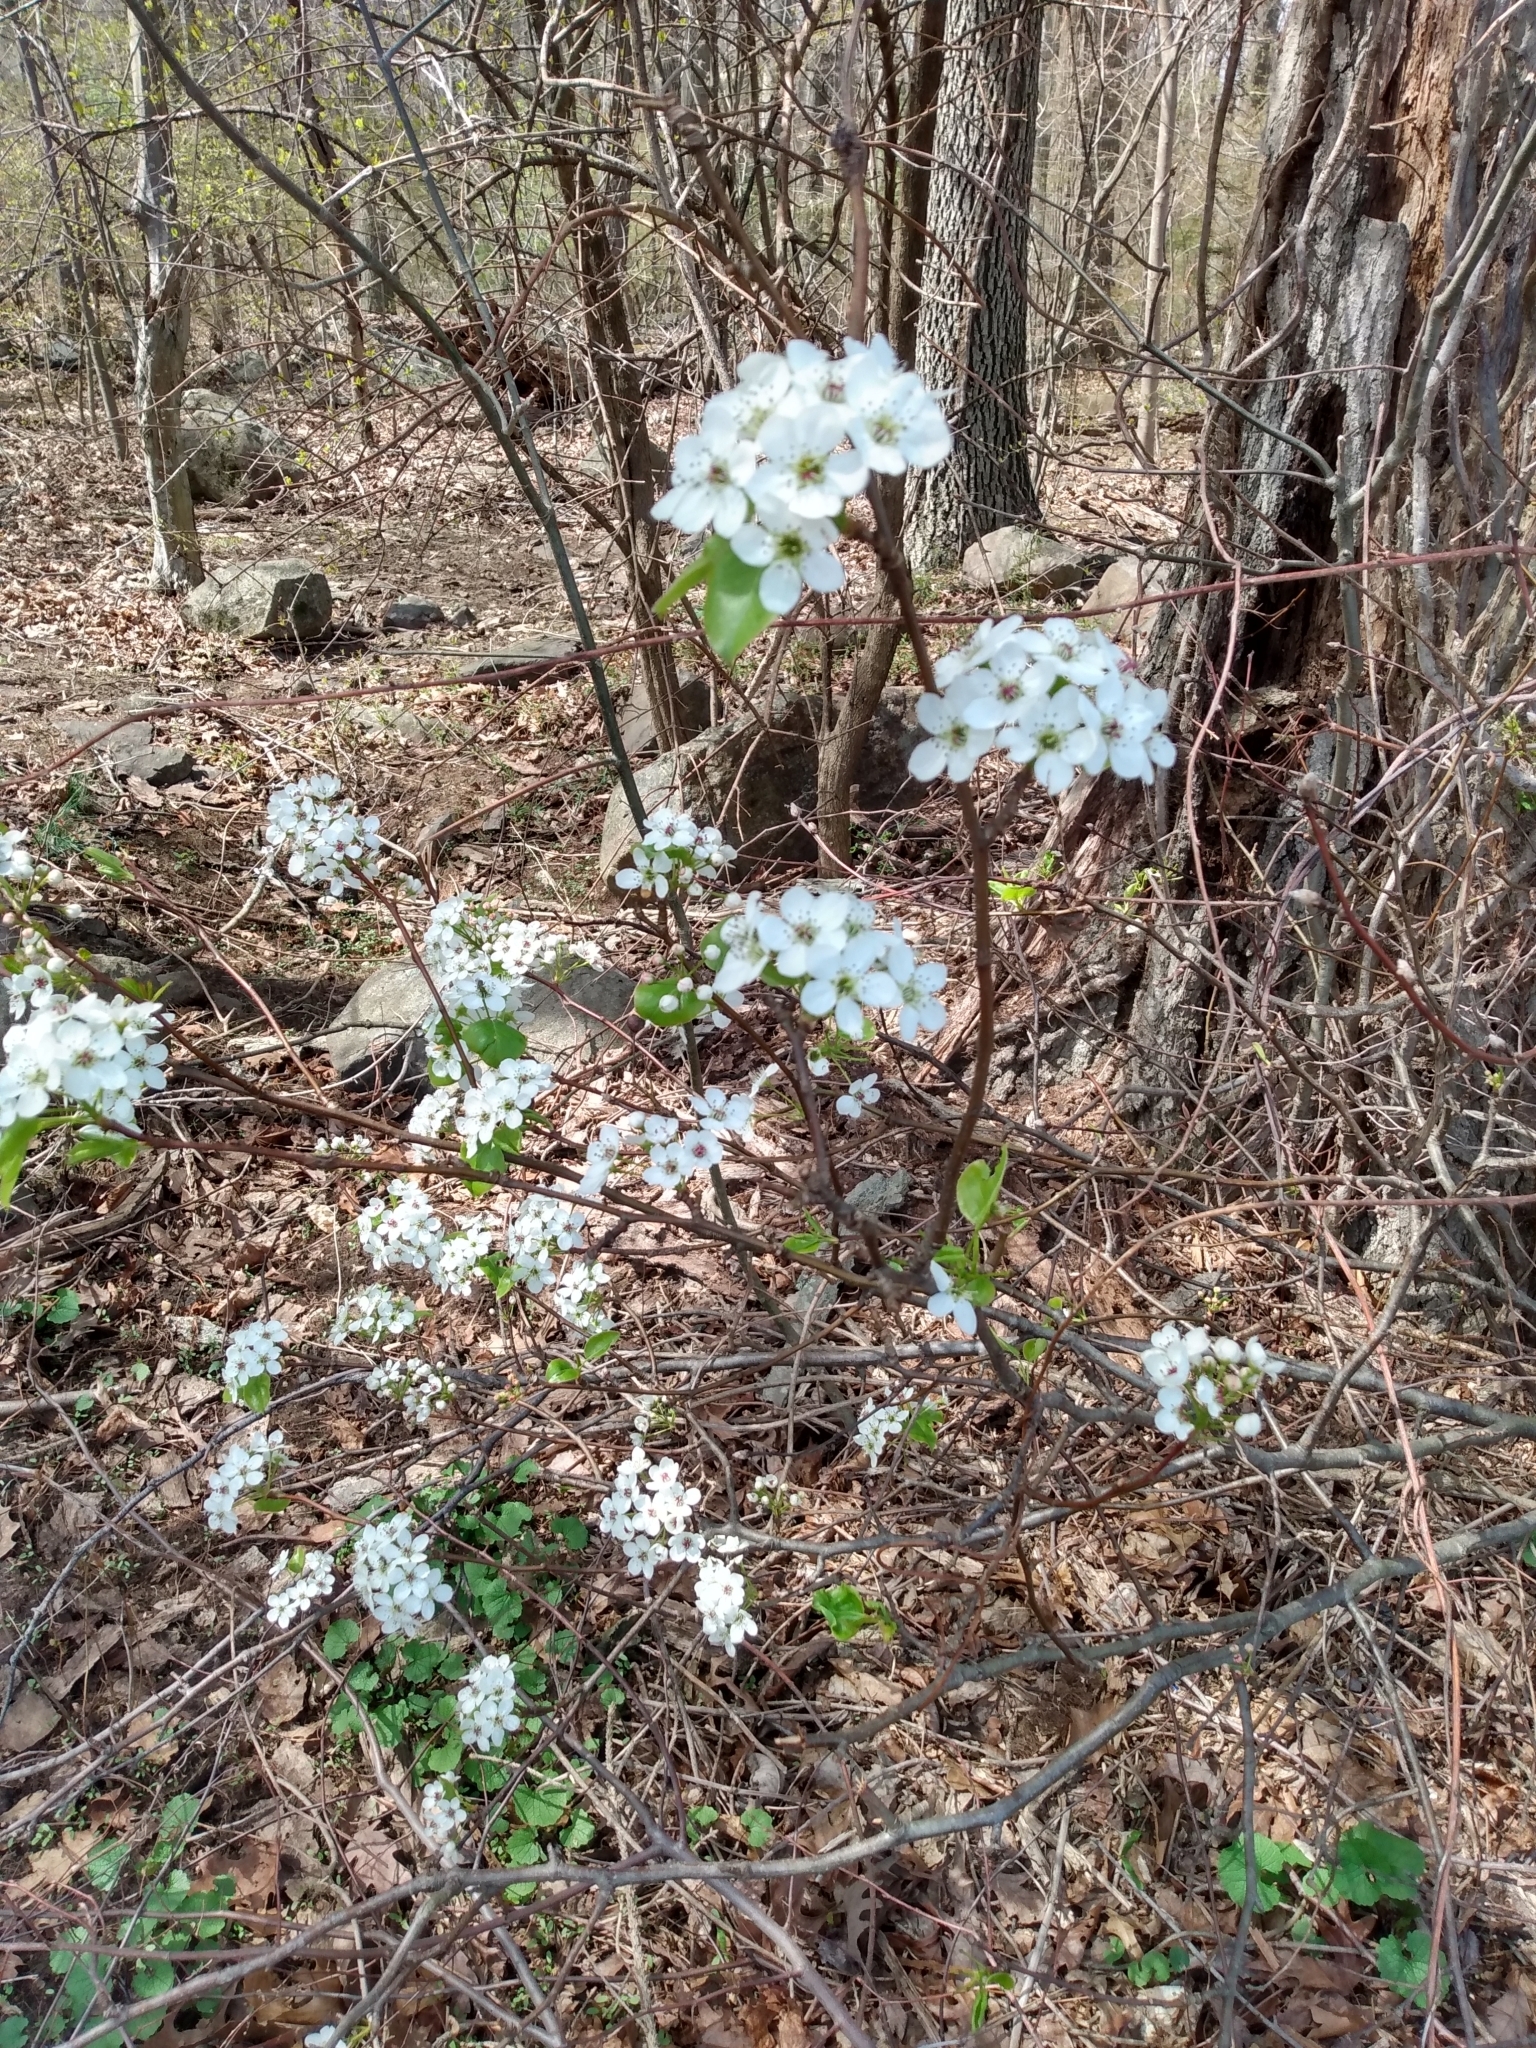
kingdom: Plantae
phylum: Tracheophyta
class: Magnoliopsida
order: Rosales
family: Rosaceae
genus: Pyrus
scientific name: Pyrus calleryana
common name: Callery pear
